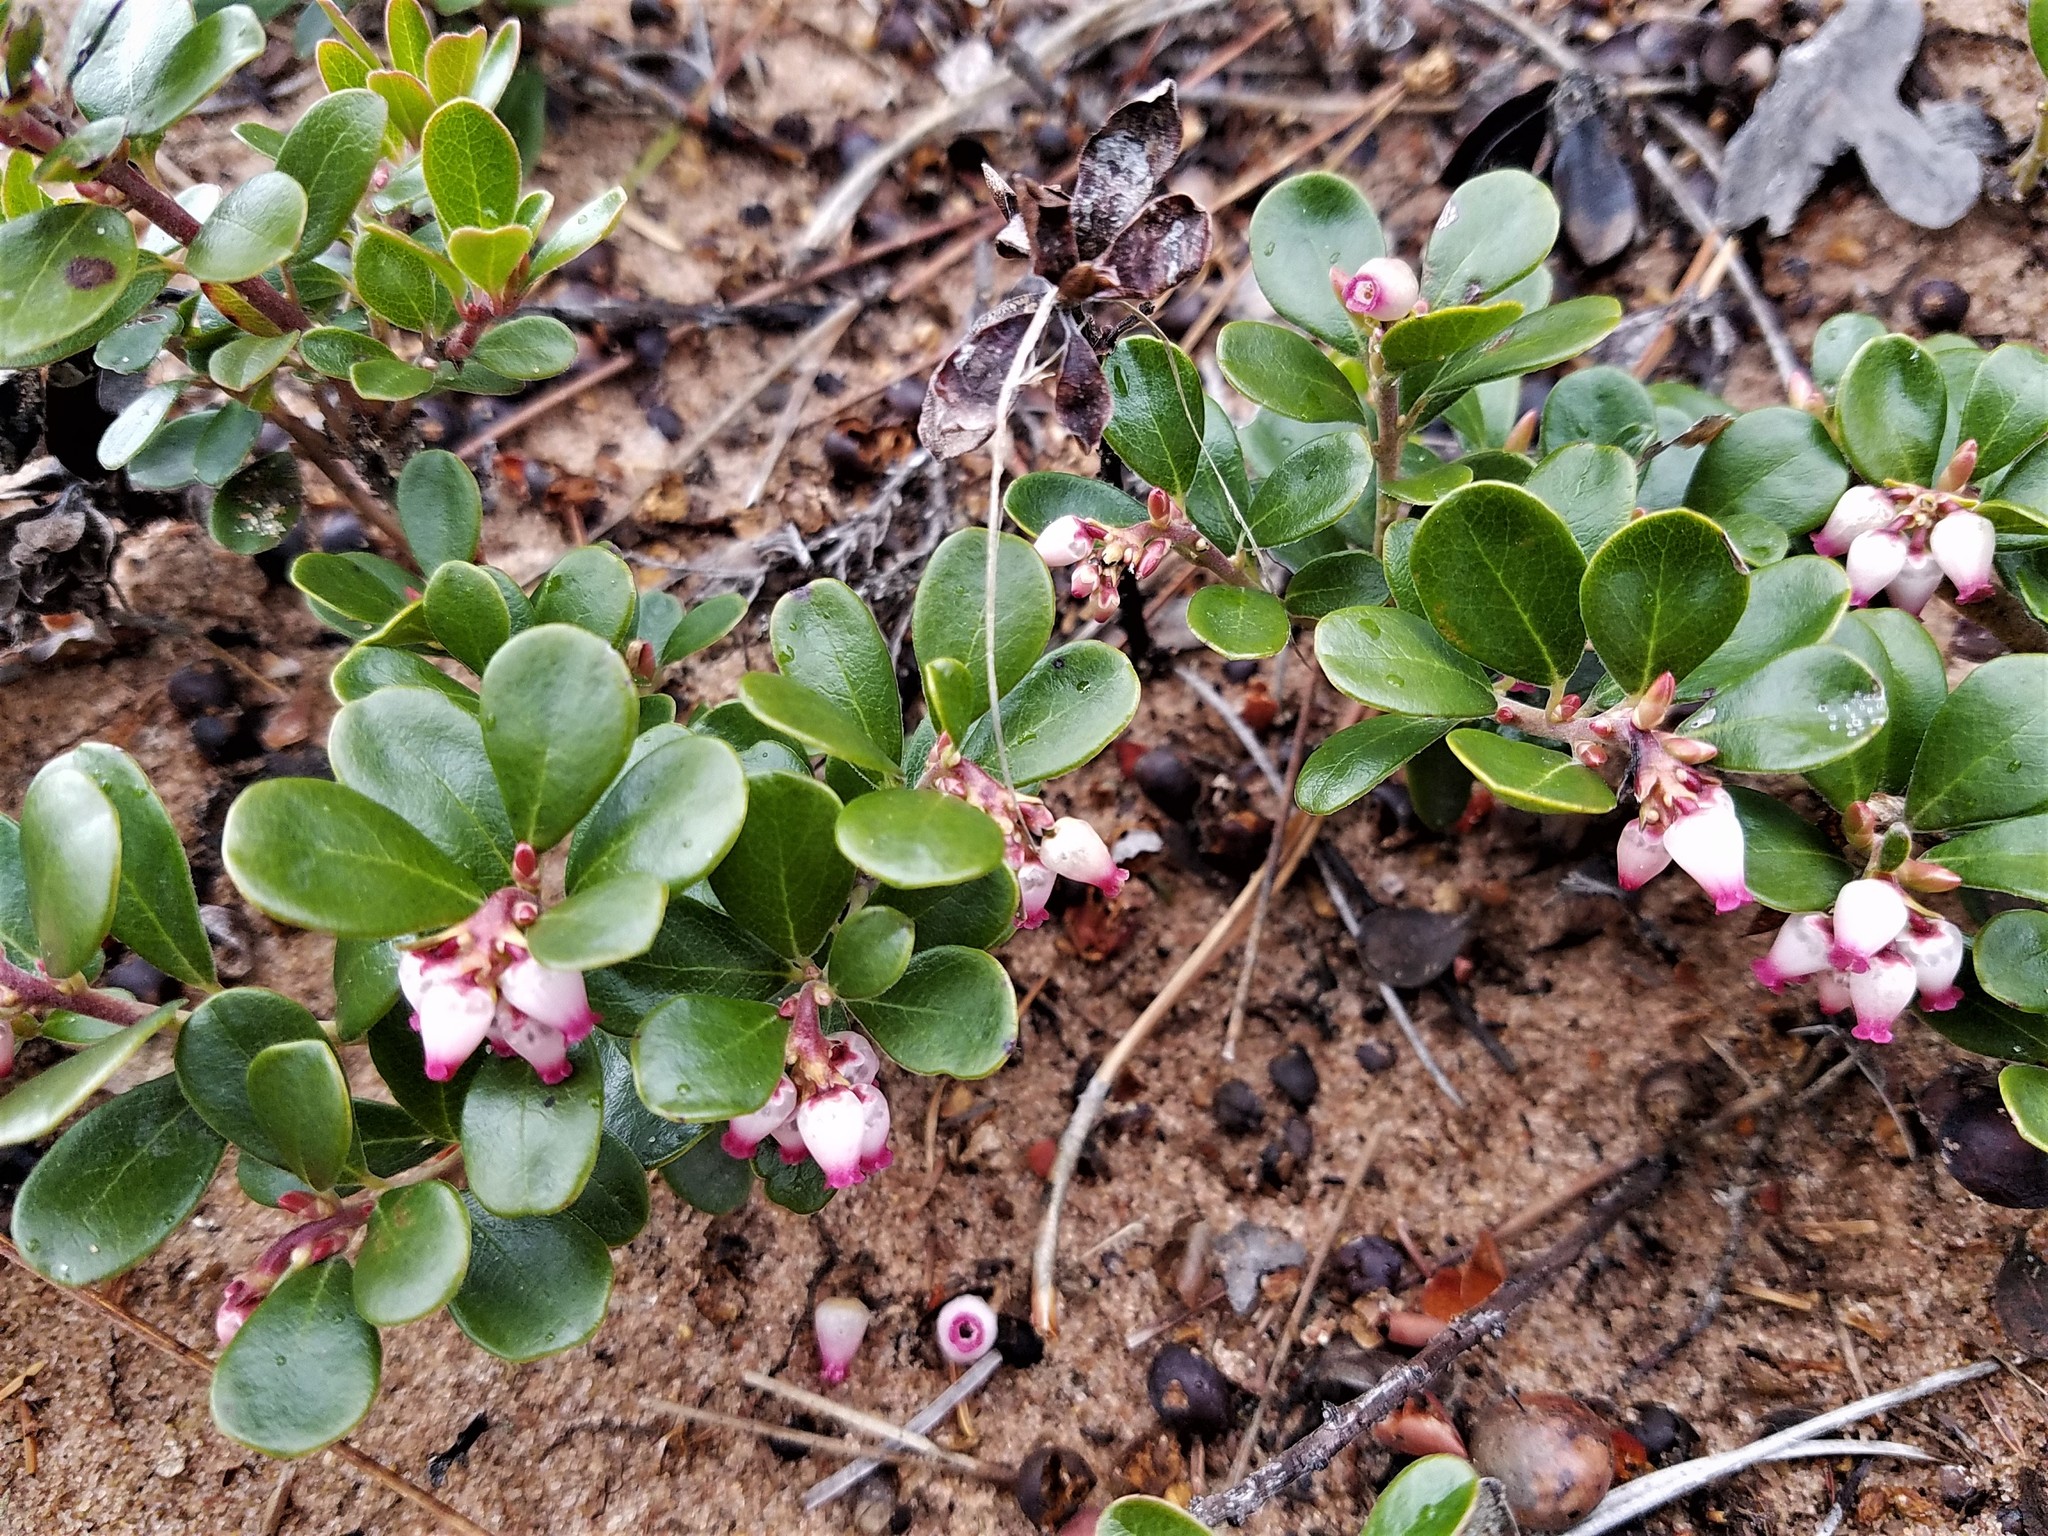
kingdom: Plantae
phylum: Tracheophyta
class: Magnoliopsida
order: Ericales
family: Ericaceae
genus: Arctostaphylos
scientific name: Arctostaphylos uva-ursi
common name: Bearberry
